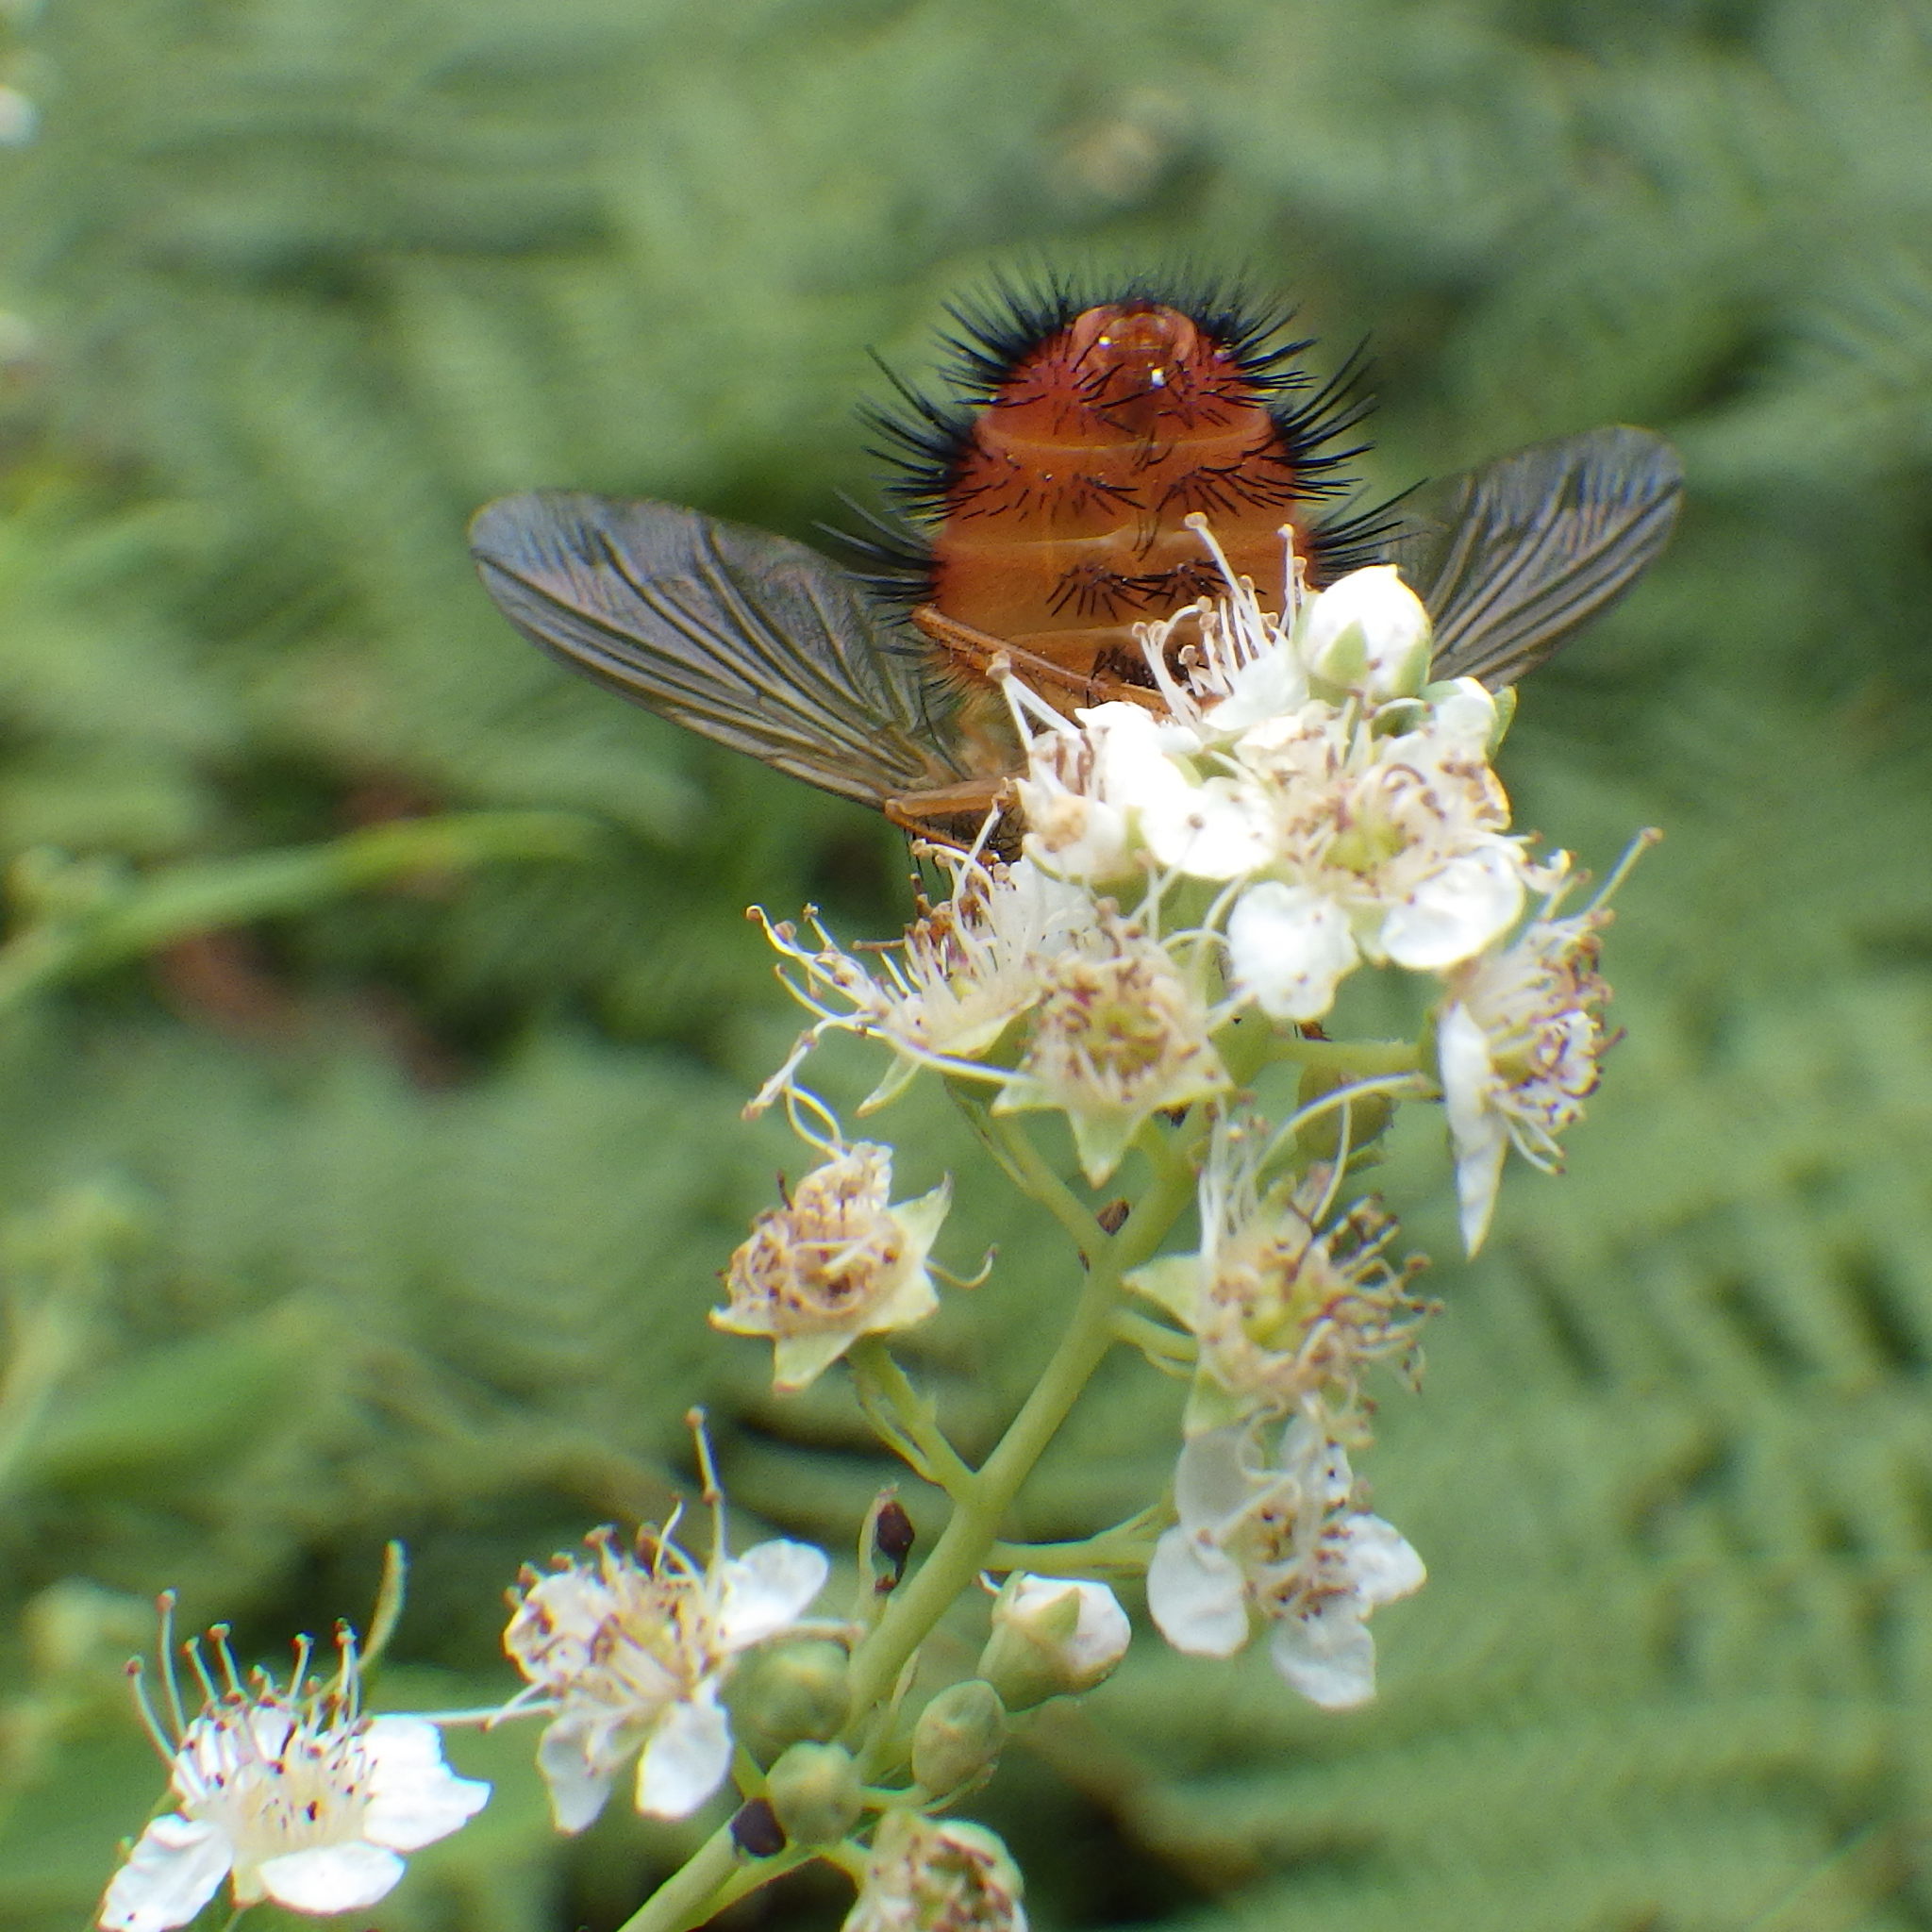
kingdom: Animalia
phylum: Arthropoda
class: Insecta
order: Diptera
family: Tachinidae
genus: Hystricia
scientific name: Hystricia abrupta
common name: Tomato bristle fly
